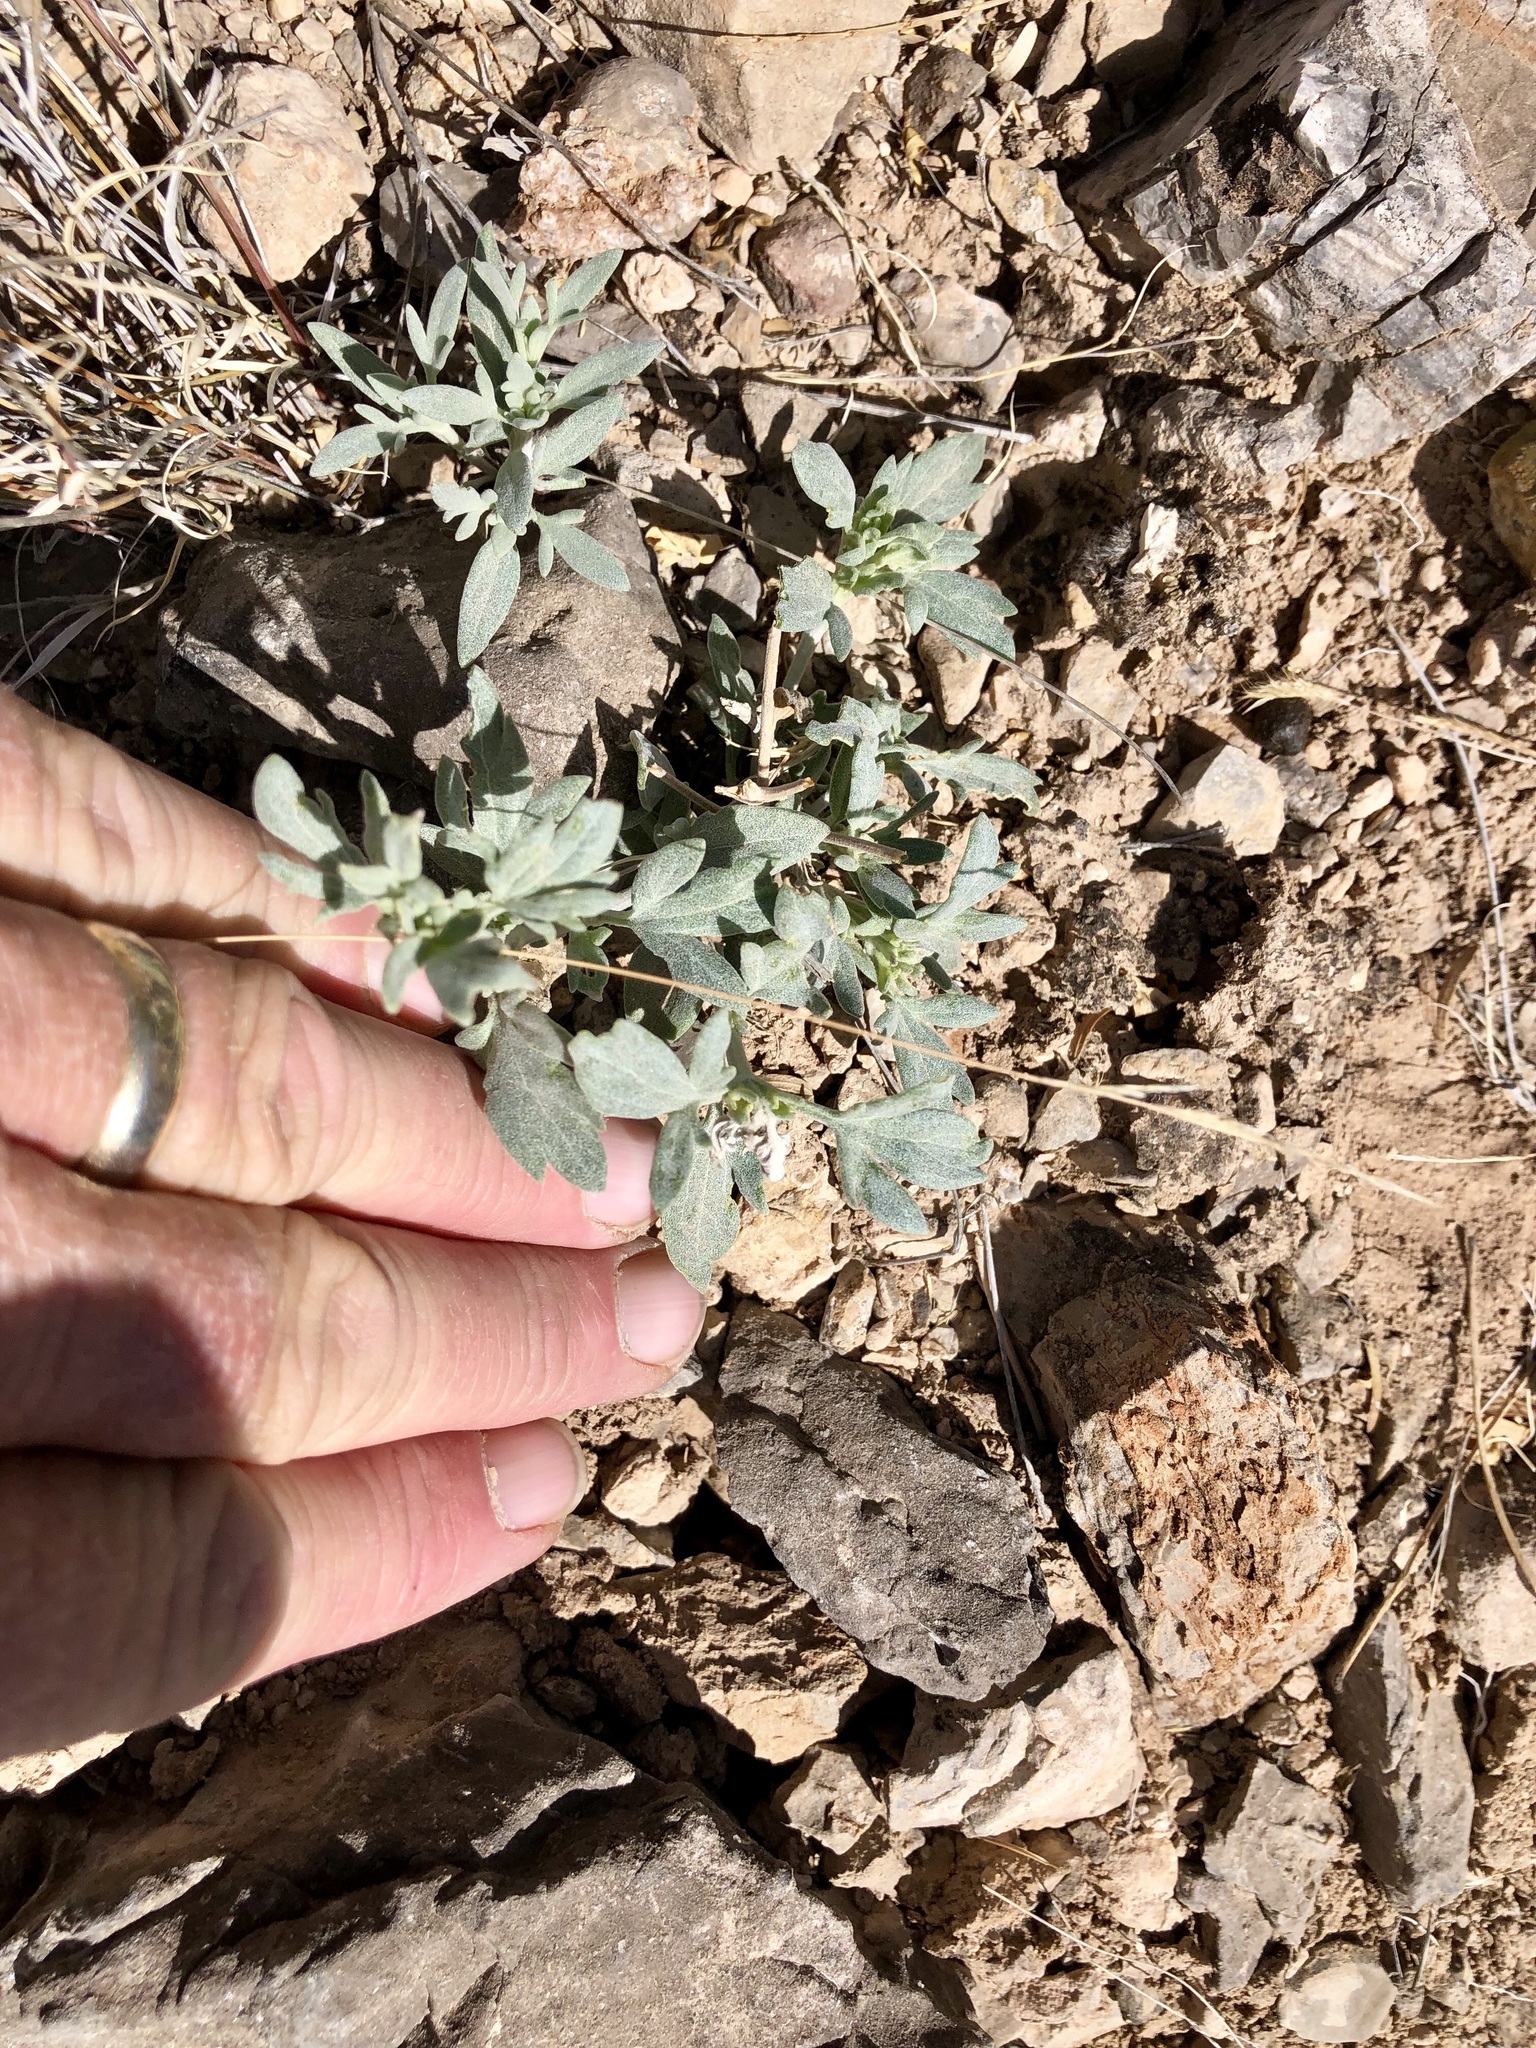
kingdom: Plantae
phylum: Tracheophyta
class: Magnoliopsida
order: Asterales
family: Asteraceae
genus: Picradeniopsis
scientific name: Picradeniopsis absinthifolia
